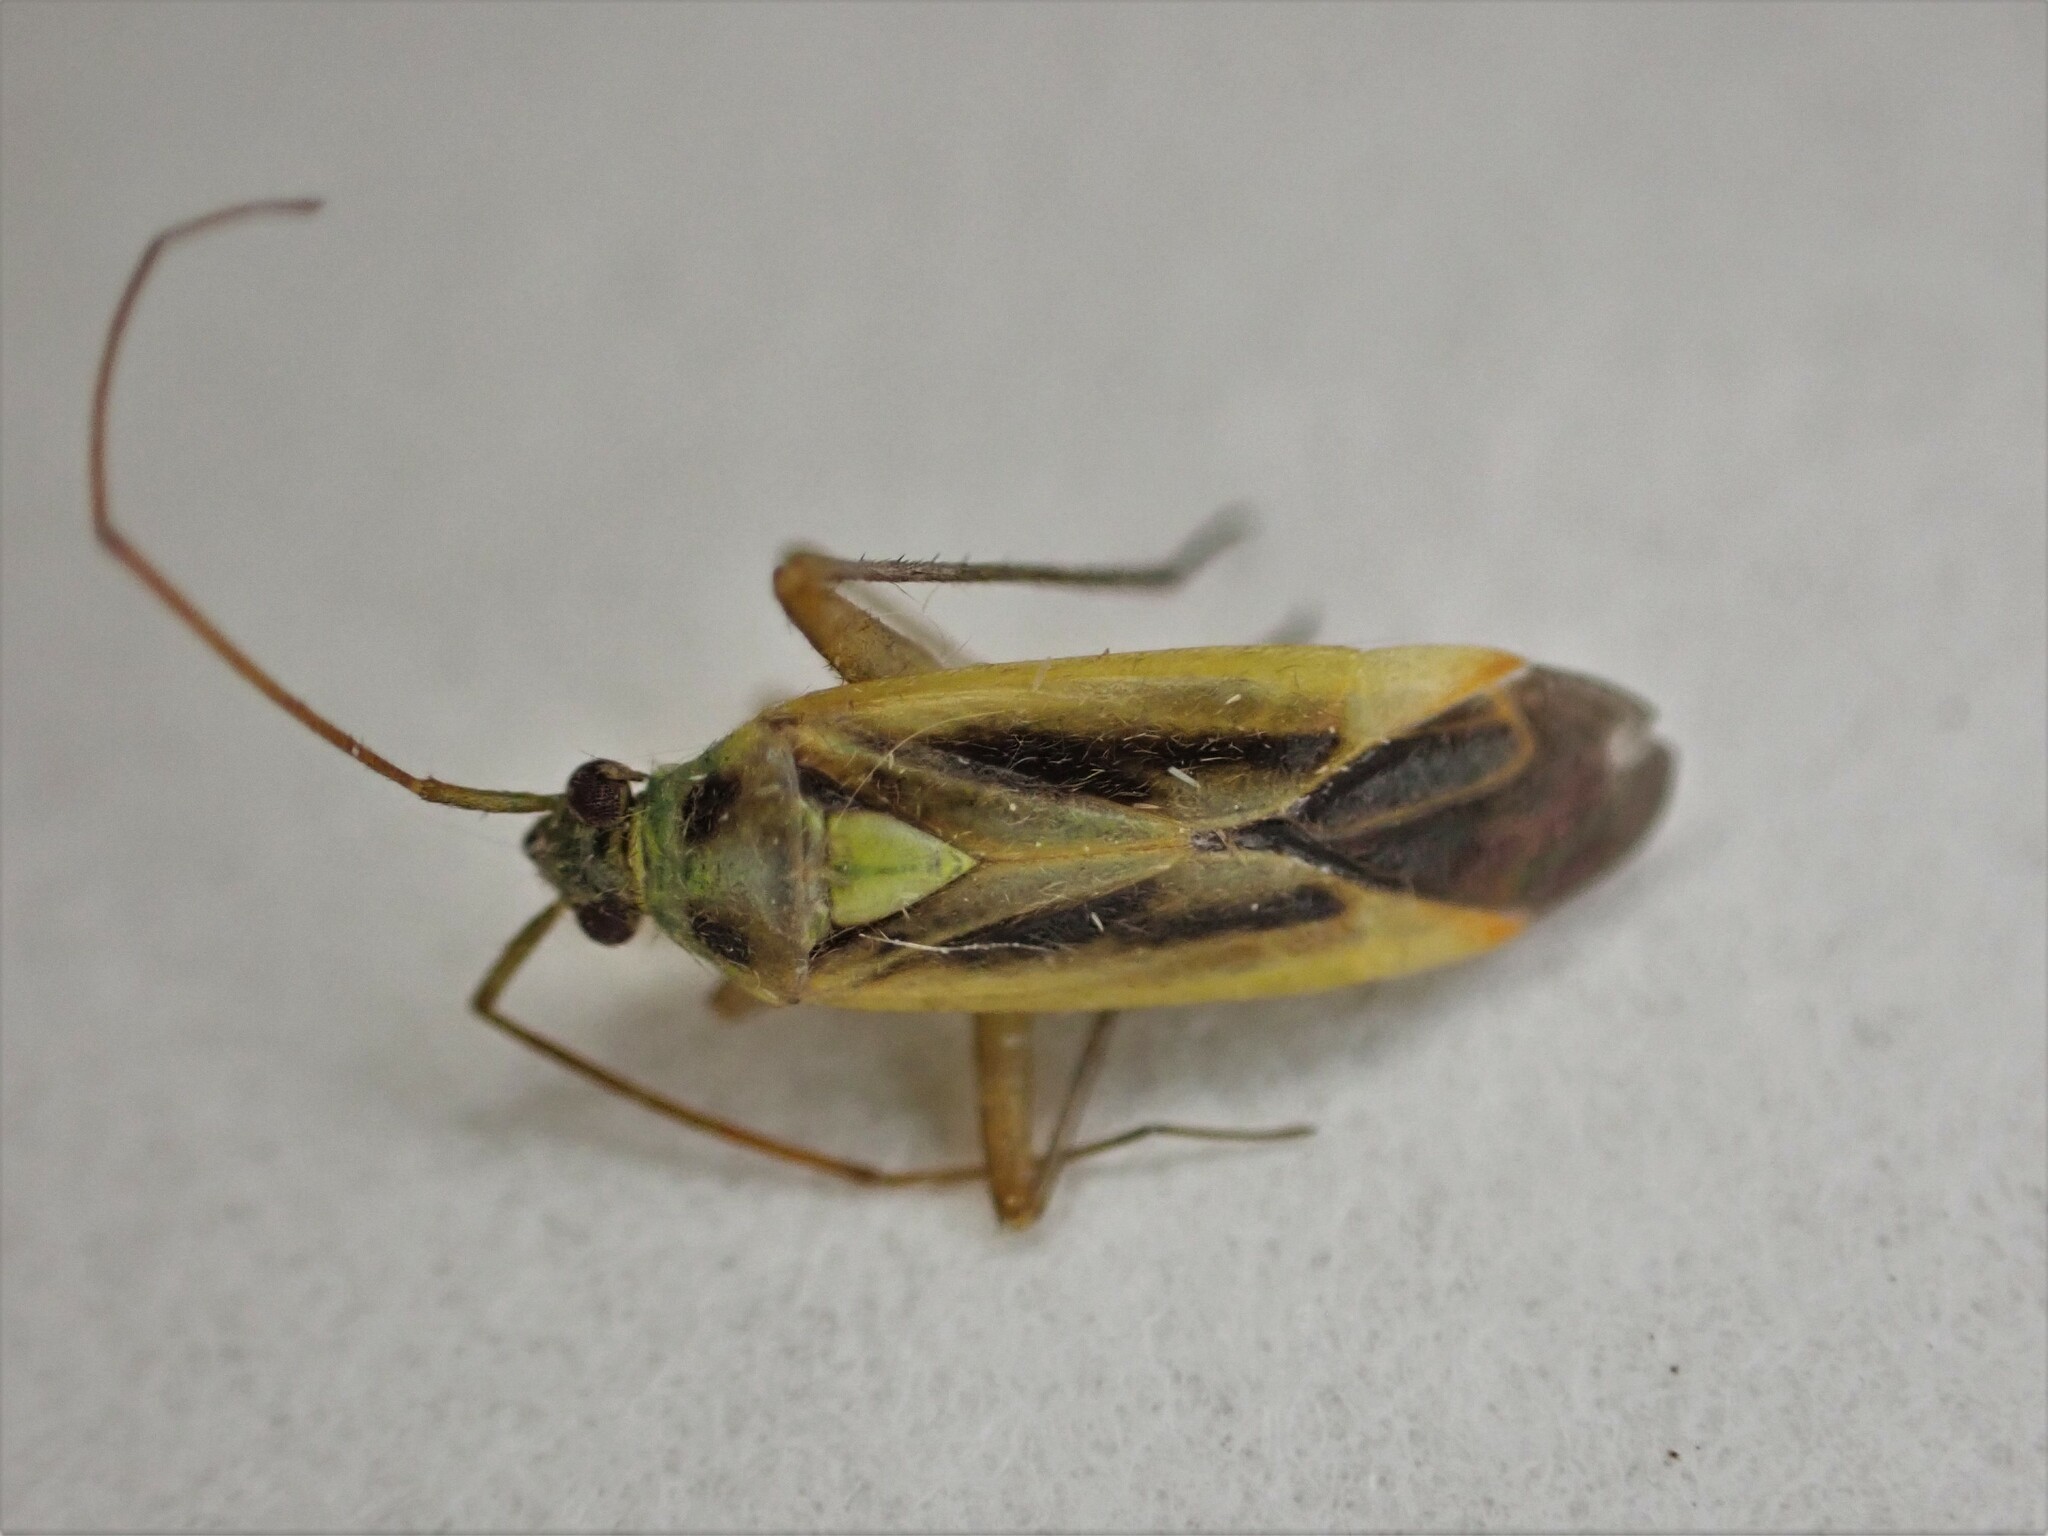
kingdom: Animalia
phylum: Arthropoda
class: Insecta
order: Hemiptera
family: Miridae
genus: Stenotus
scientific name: Stenotus binotatus
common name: Plant bug
